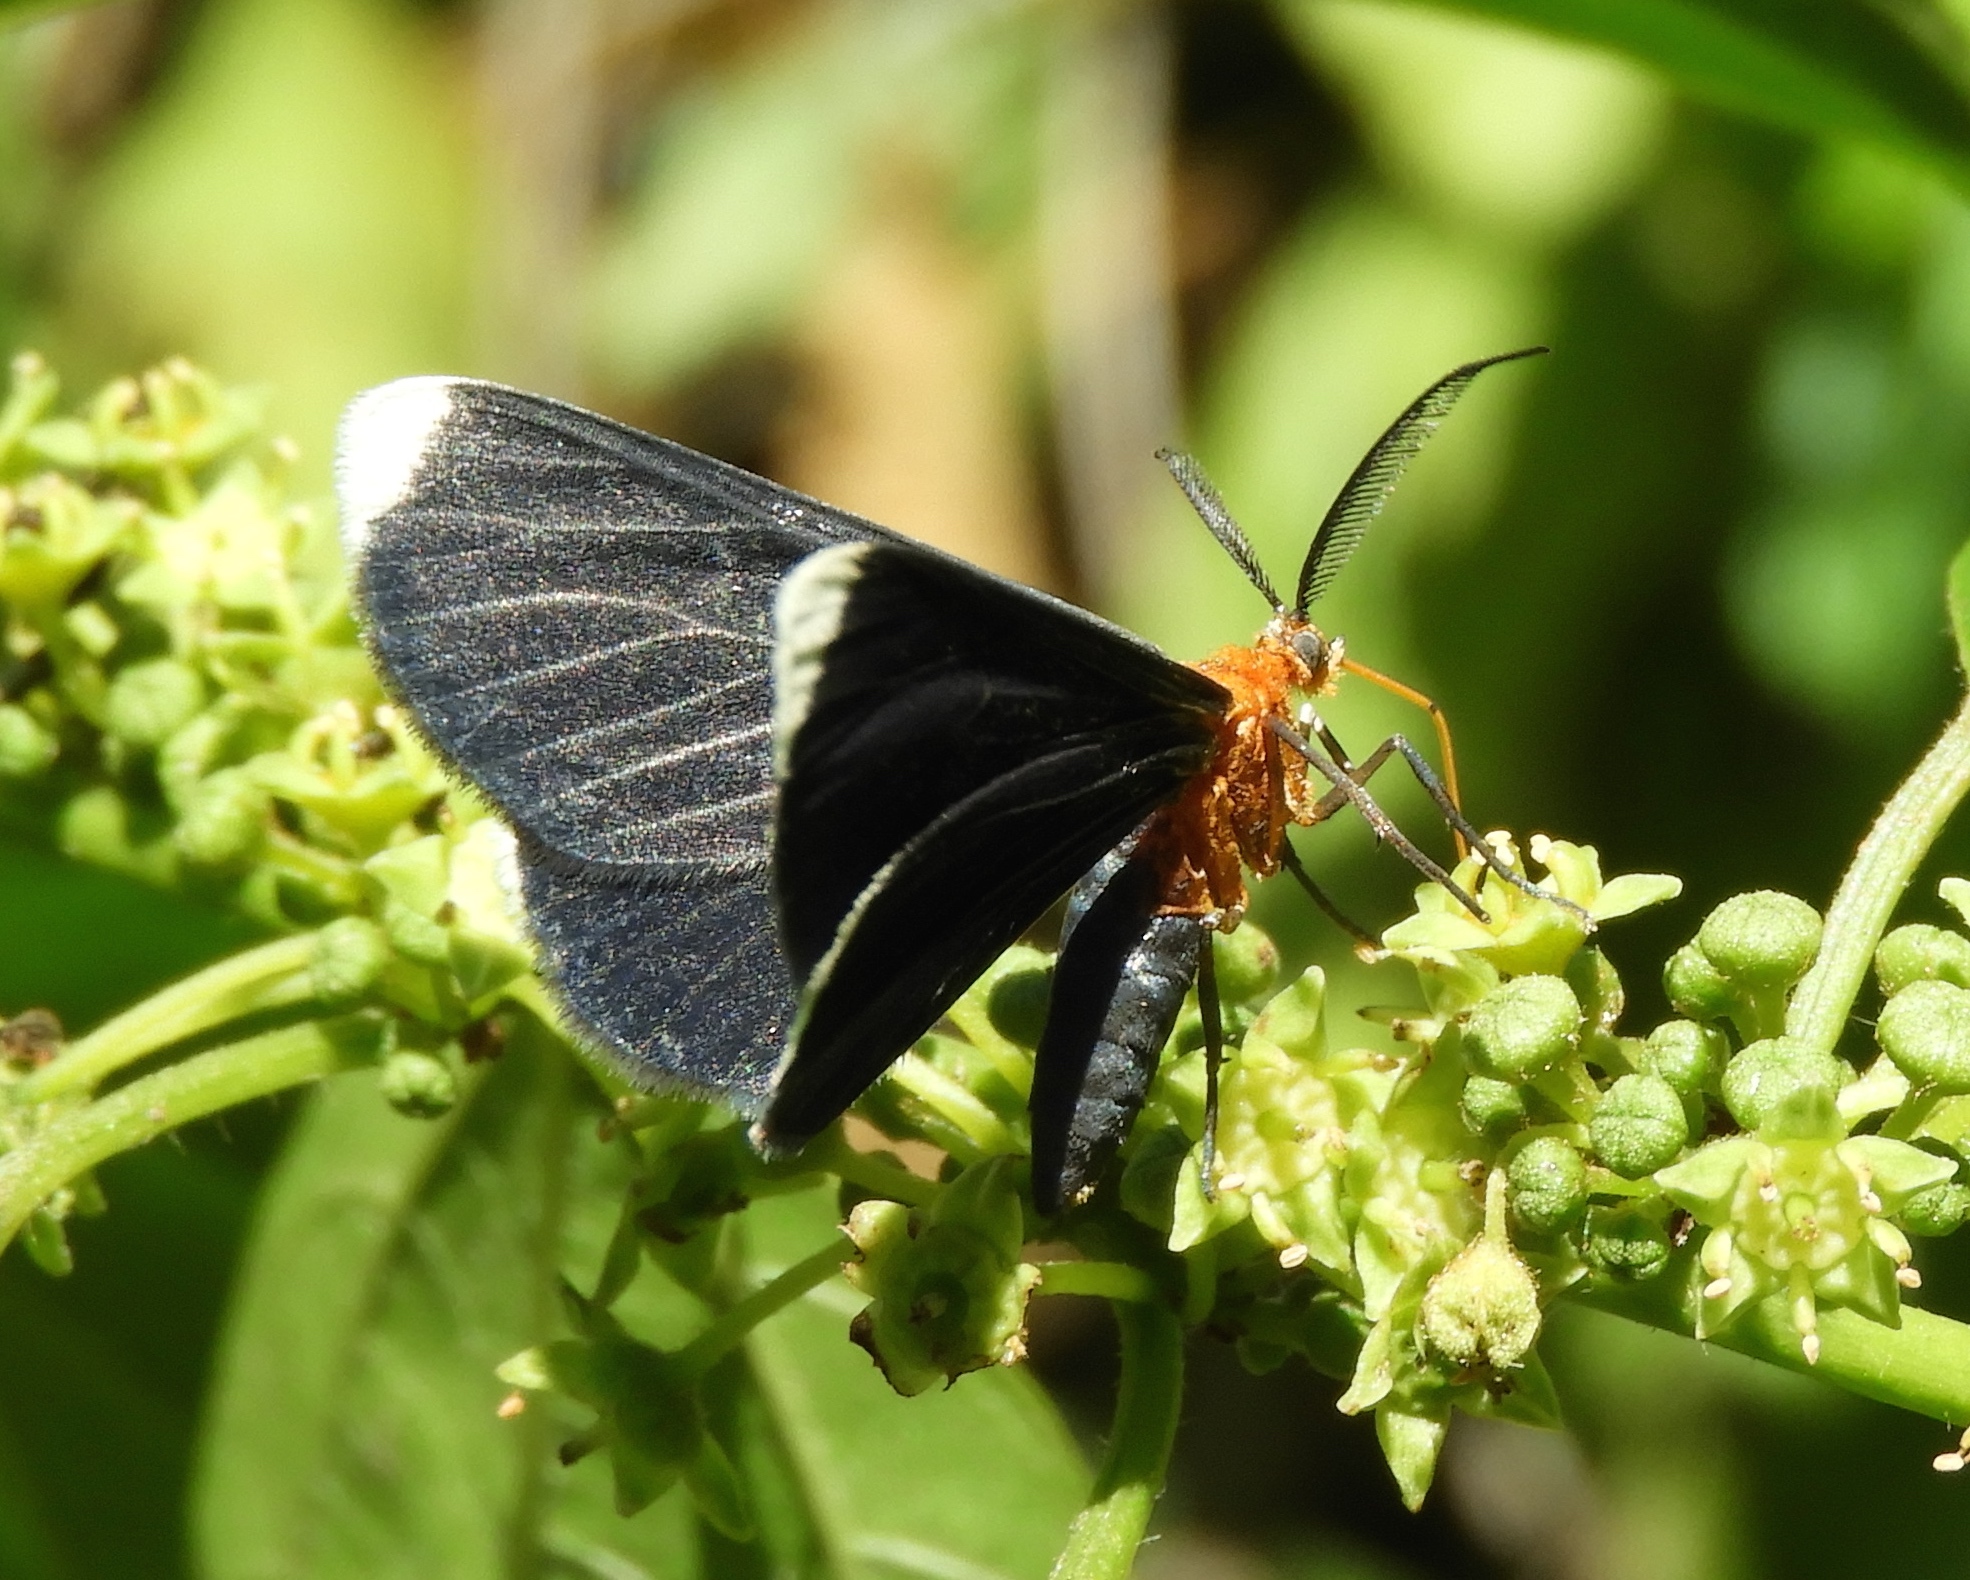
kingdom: Animalia
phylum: Arthropoda
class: Insecta
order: Lepidoptera
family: Geometridae
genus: Melanchroia
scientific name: Melanchroia chephise
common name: White-tipped black
